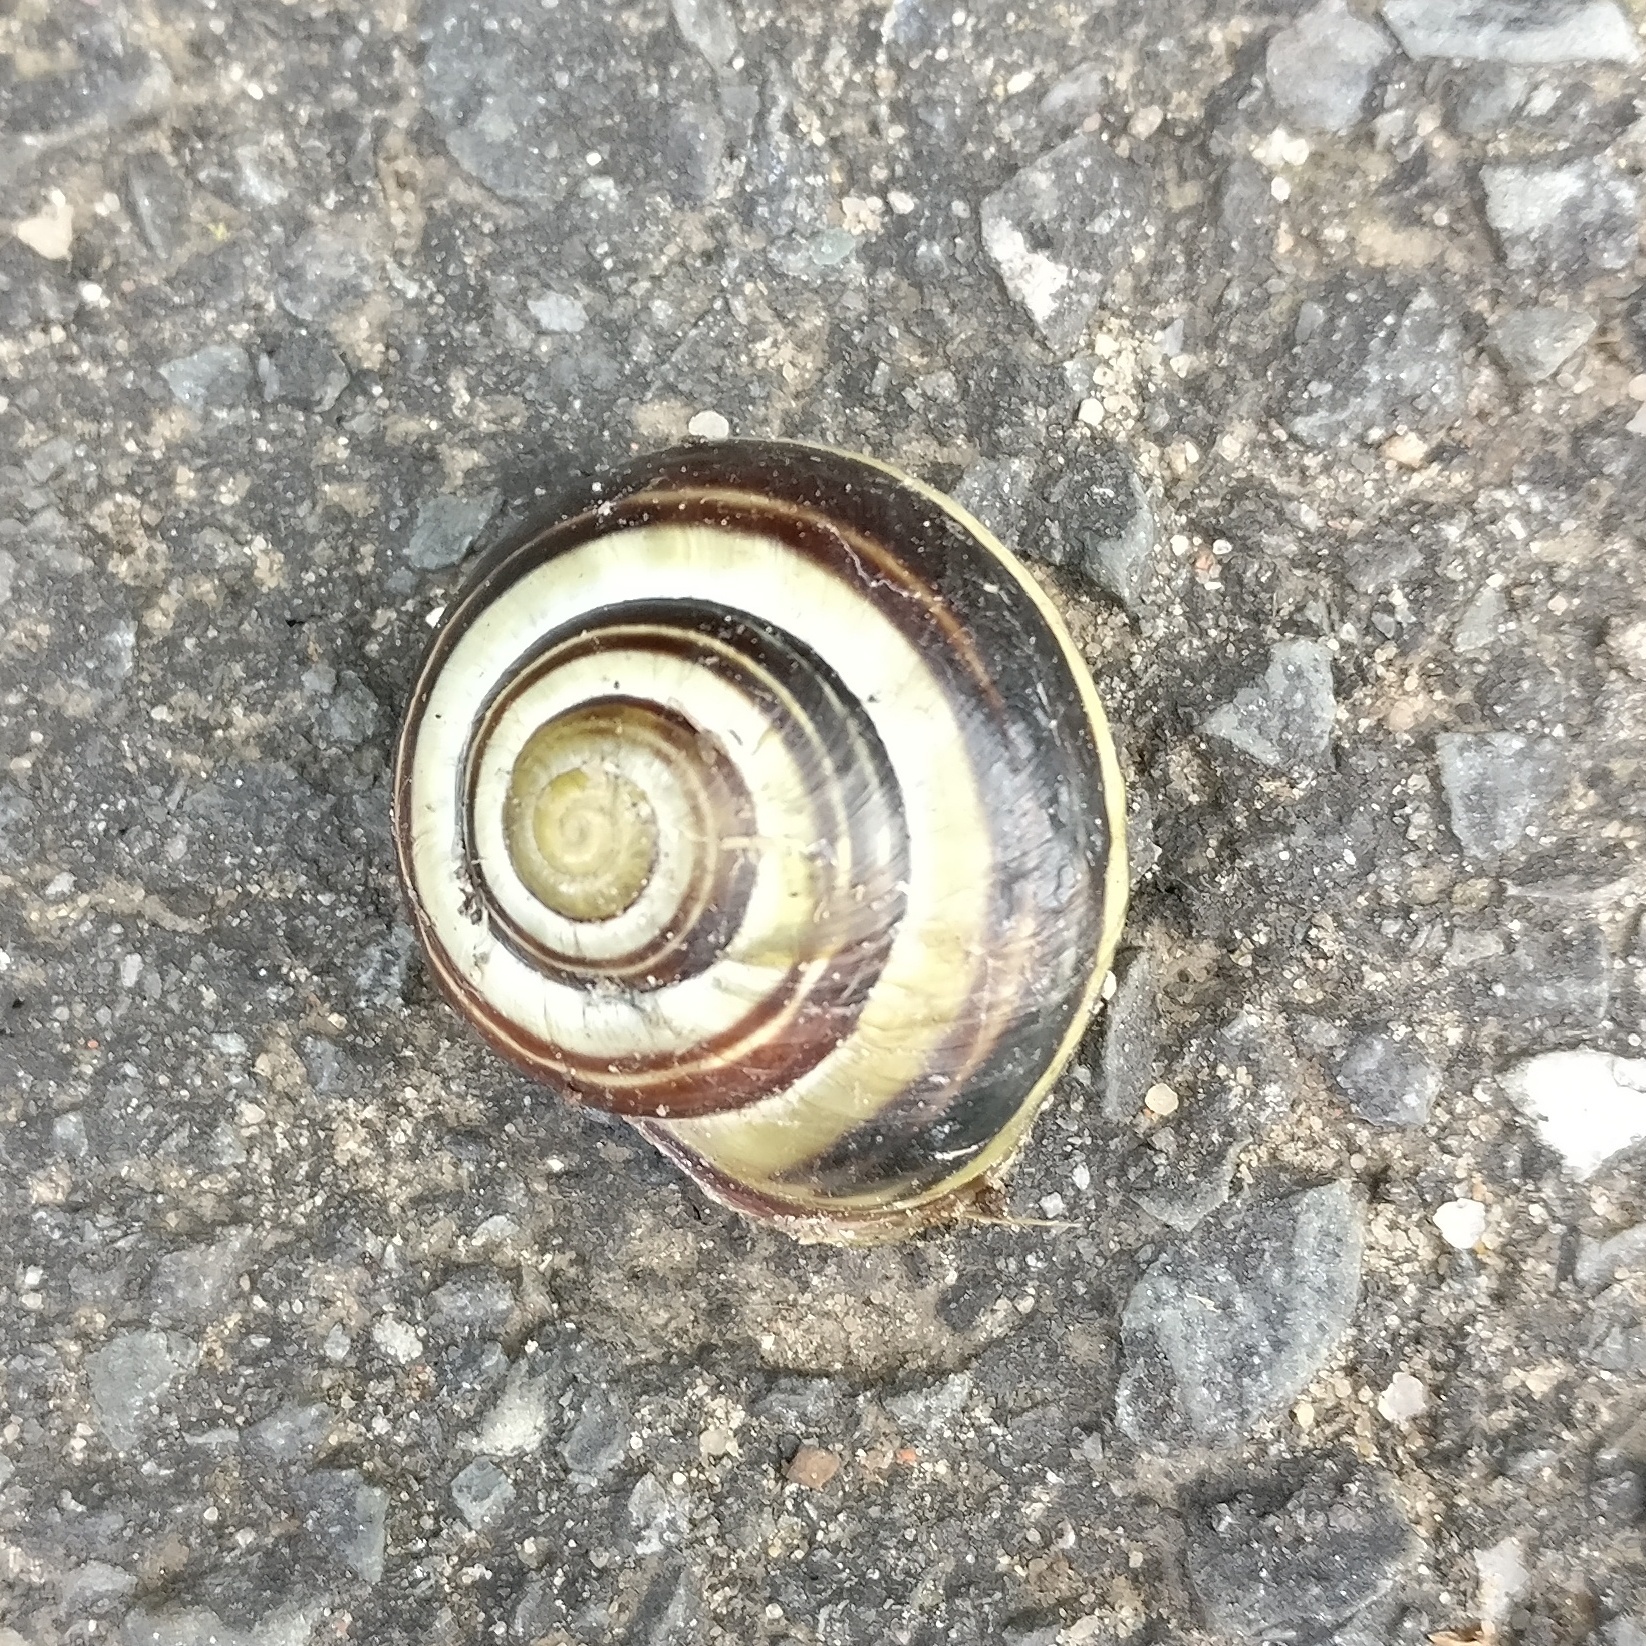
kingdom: Animalia
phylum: Mollusca
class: Gastropoda
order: Stylommatophora
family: Helicidae
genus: Cepaea
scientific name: Cepaea nemoralis
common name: Grovesnail
